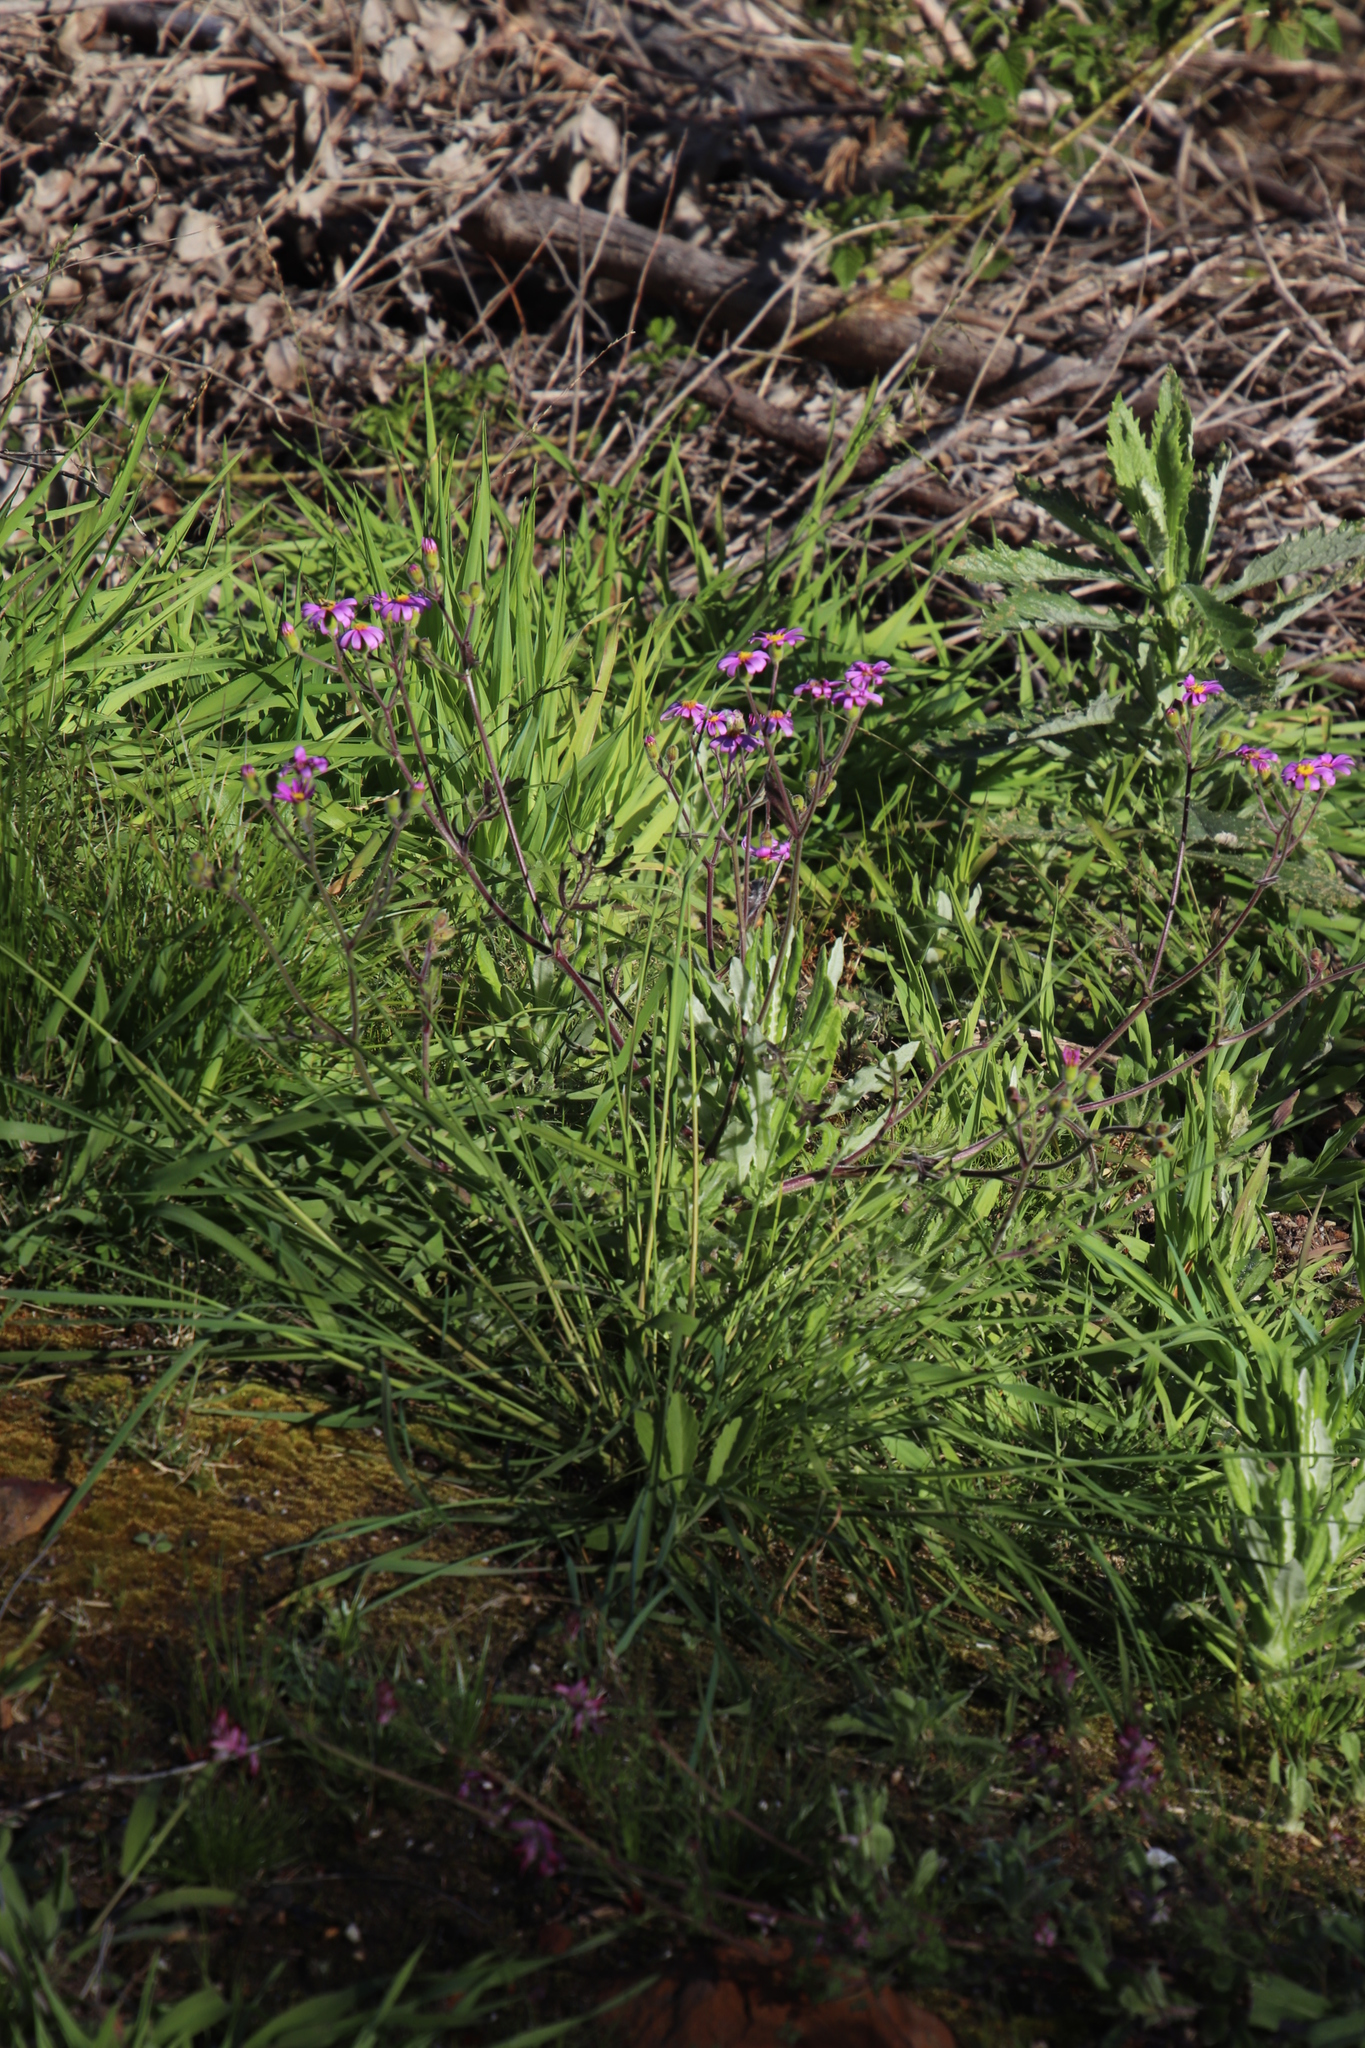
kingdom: Plantae
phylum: Tracheophyta
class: Magnoliopsida
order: Asterales
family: Asteraceae
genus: Senecio
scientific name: Senecio arenarius
